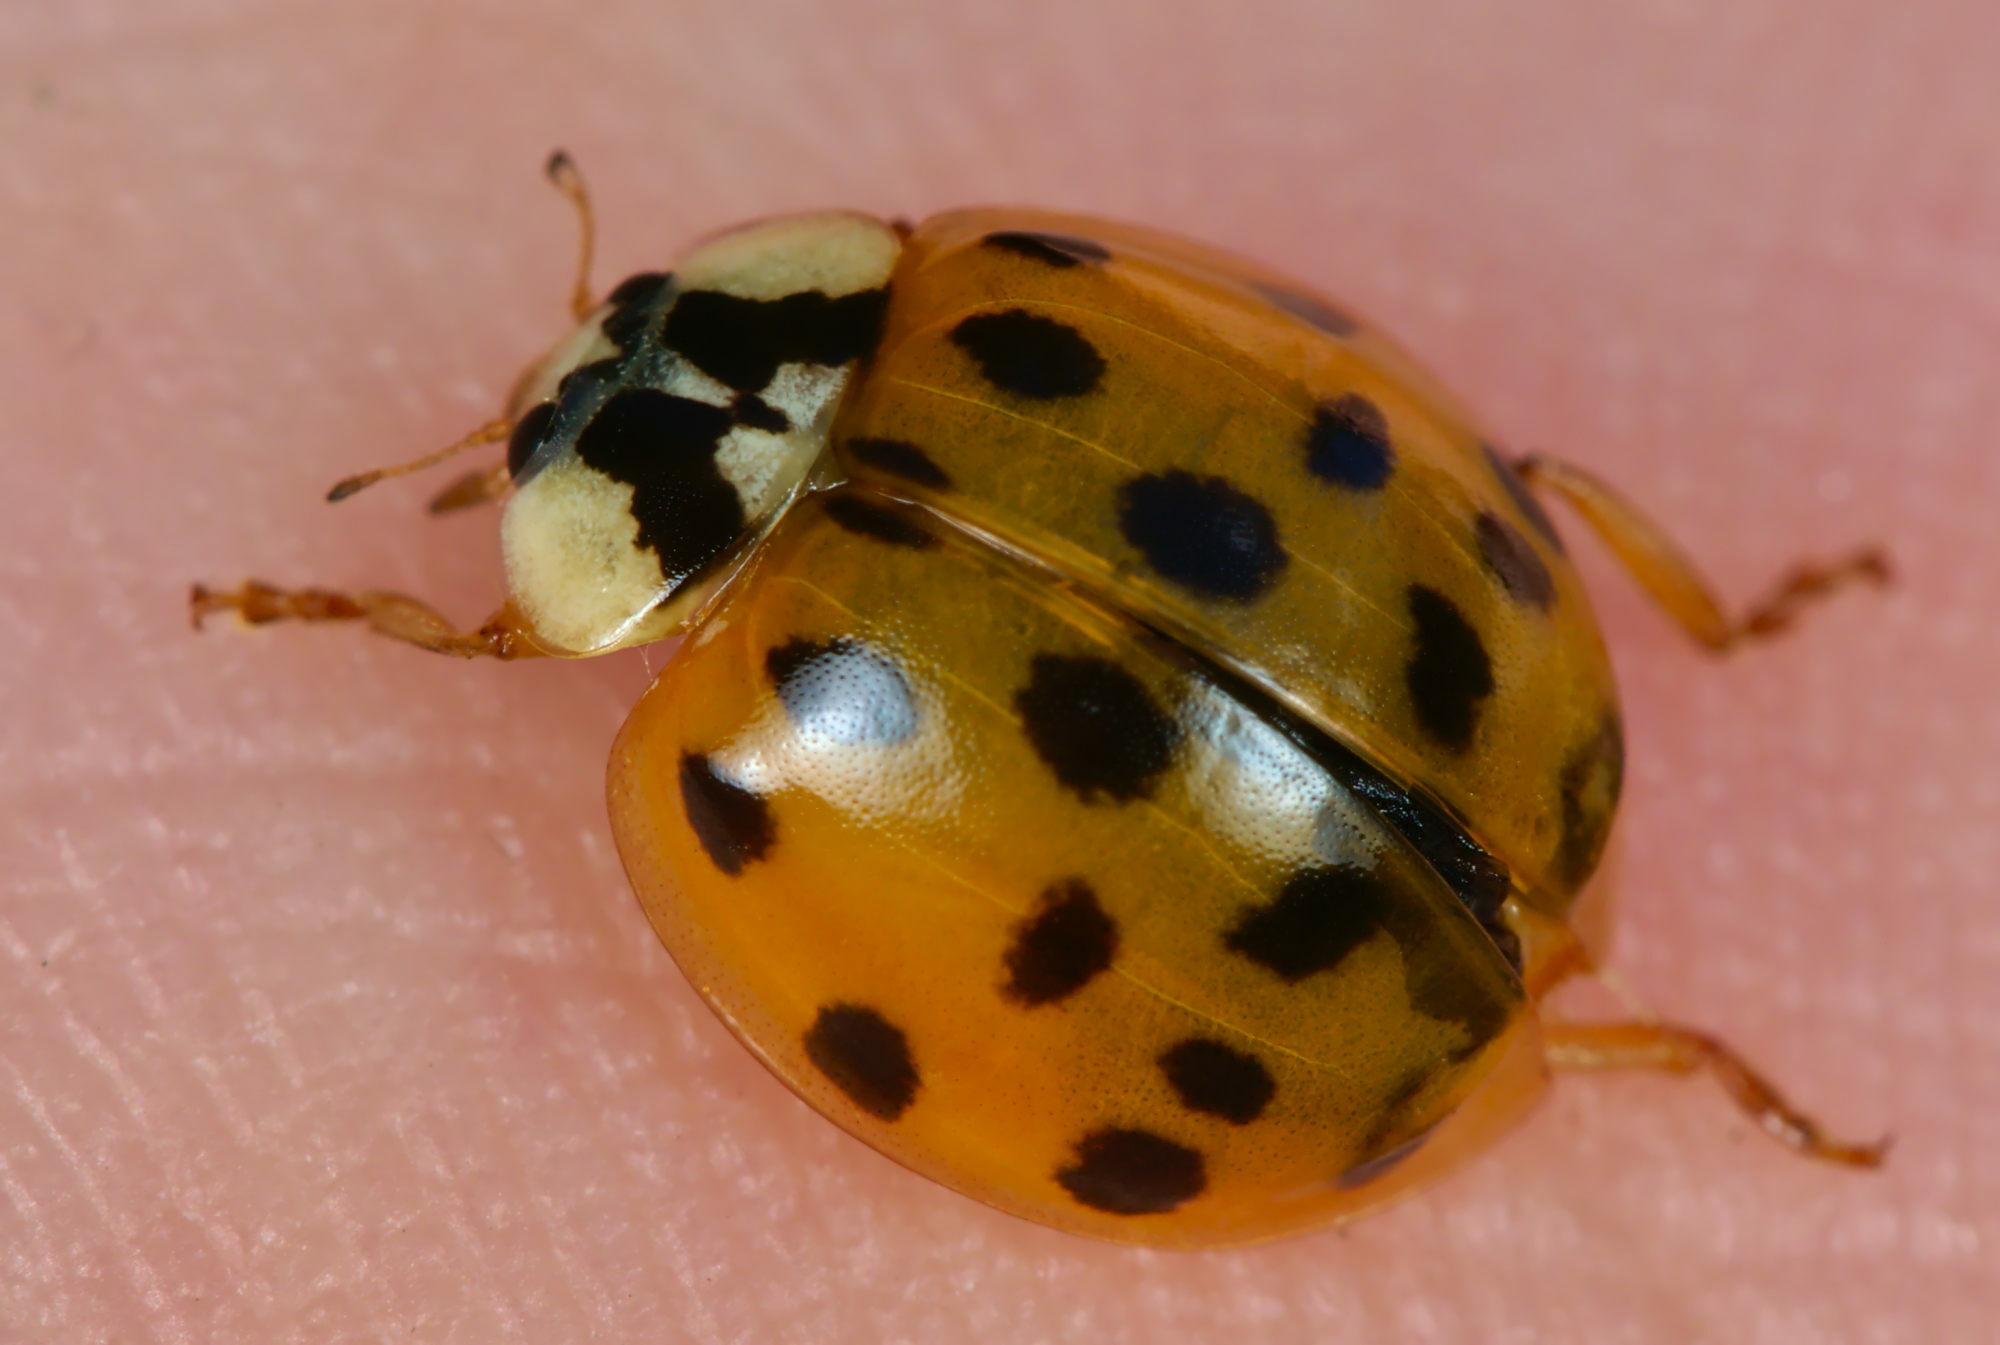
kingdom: Animalia
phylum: Arthropoda
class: Insecta
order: Coleoptera
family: Coccinellidae
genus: Harmonia
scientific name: Harmonia axyridis
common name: Harlequin ladybird
